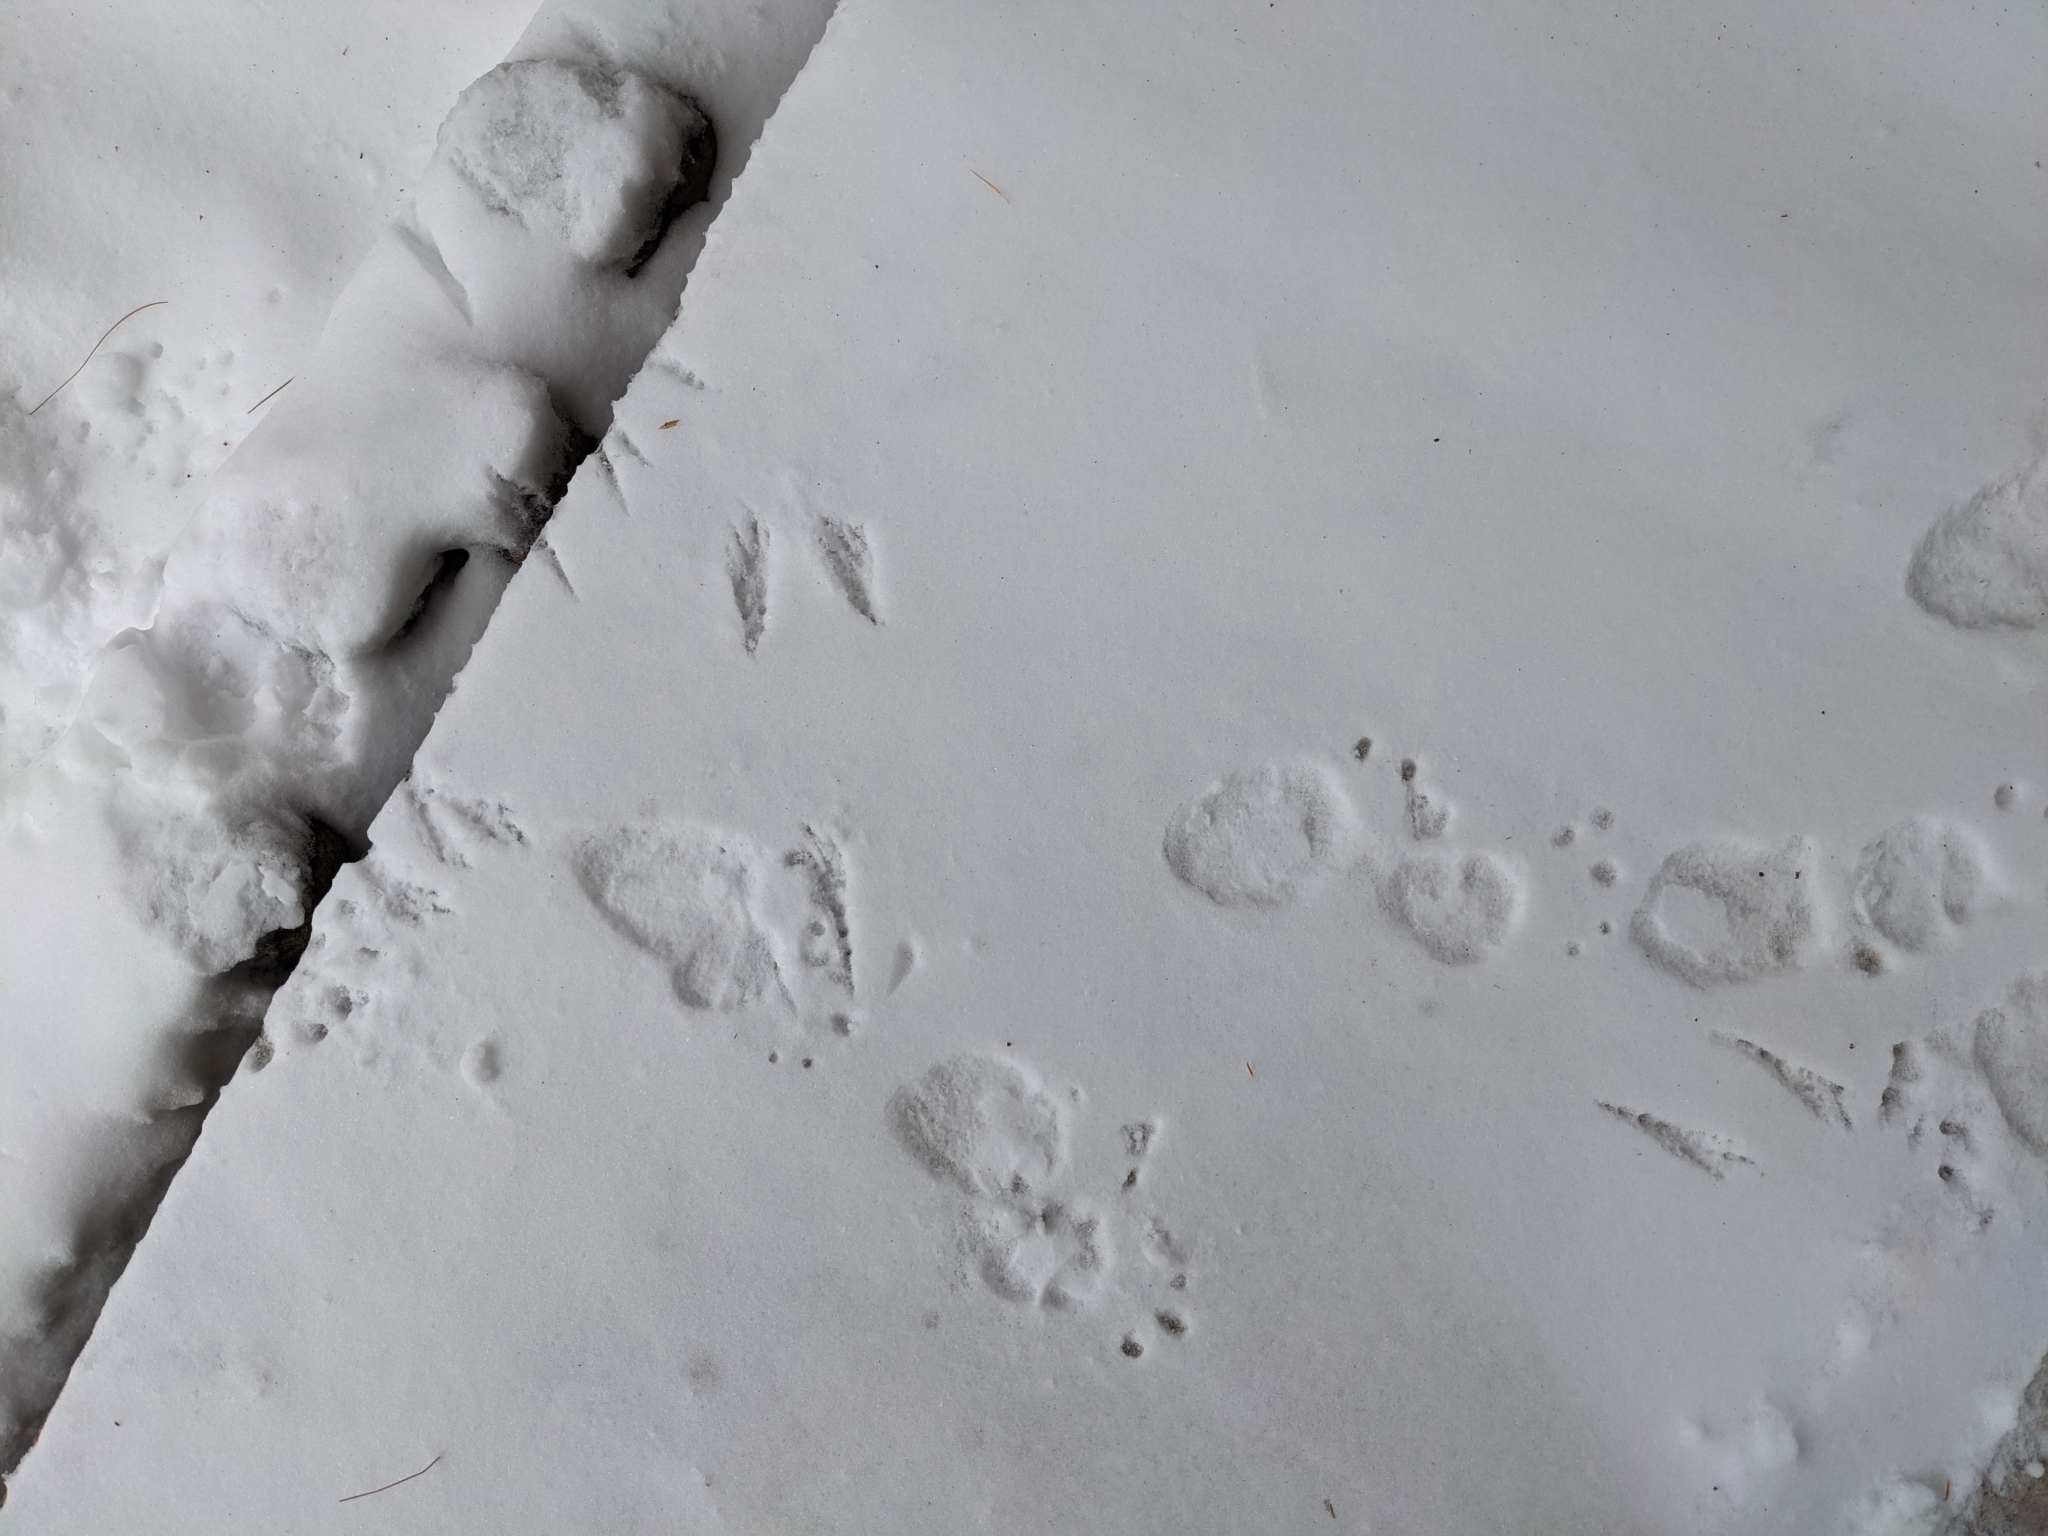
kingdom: Animalia
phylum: Chordata
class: Mammalia
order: Rodentia
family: Erethizontidae
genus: Erethizon
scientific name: Erethizon dorsatus
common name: North american porcupine
